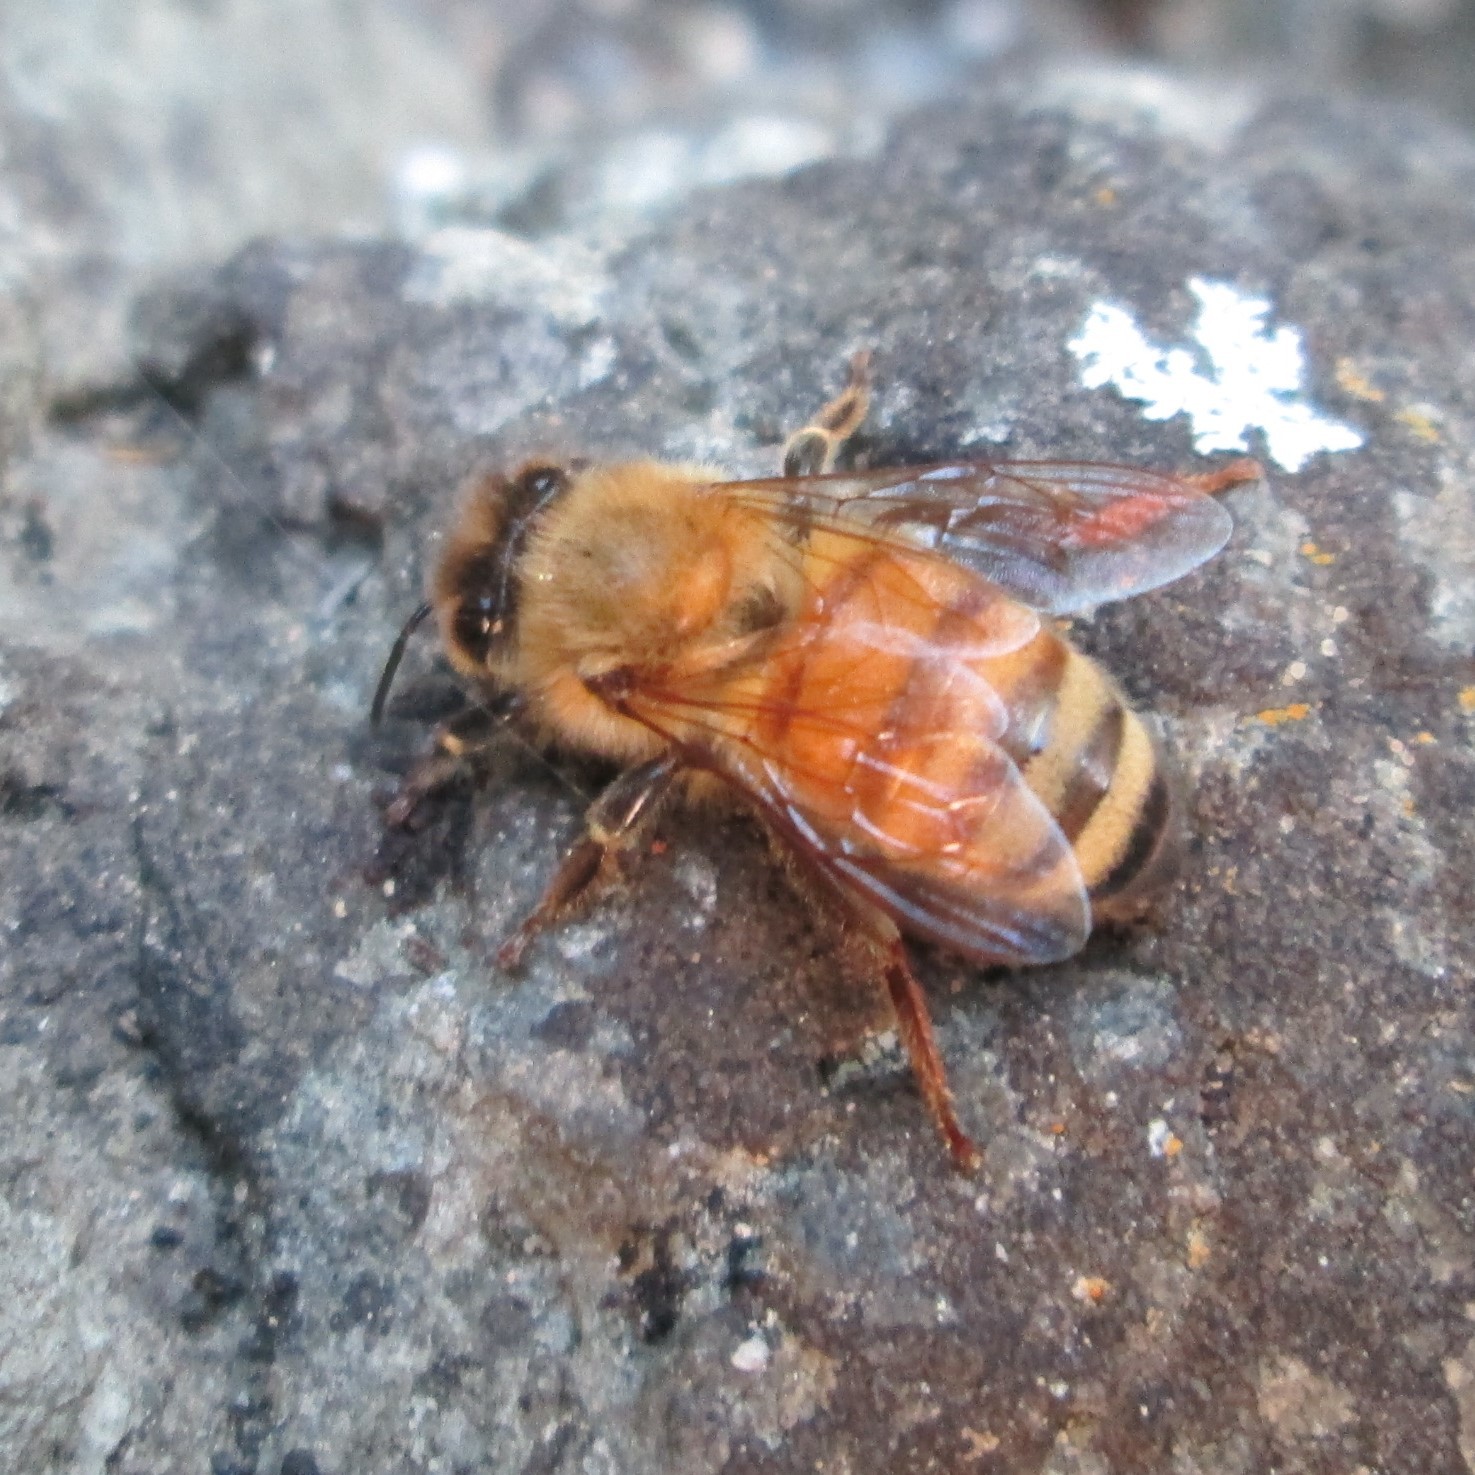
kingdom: Animalia
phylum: Arthropoda
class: Insecta
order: Hymenoptera
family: Apidae
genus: Apis
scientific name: Apis mellifera
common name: Honey bee
